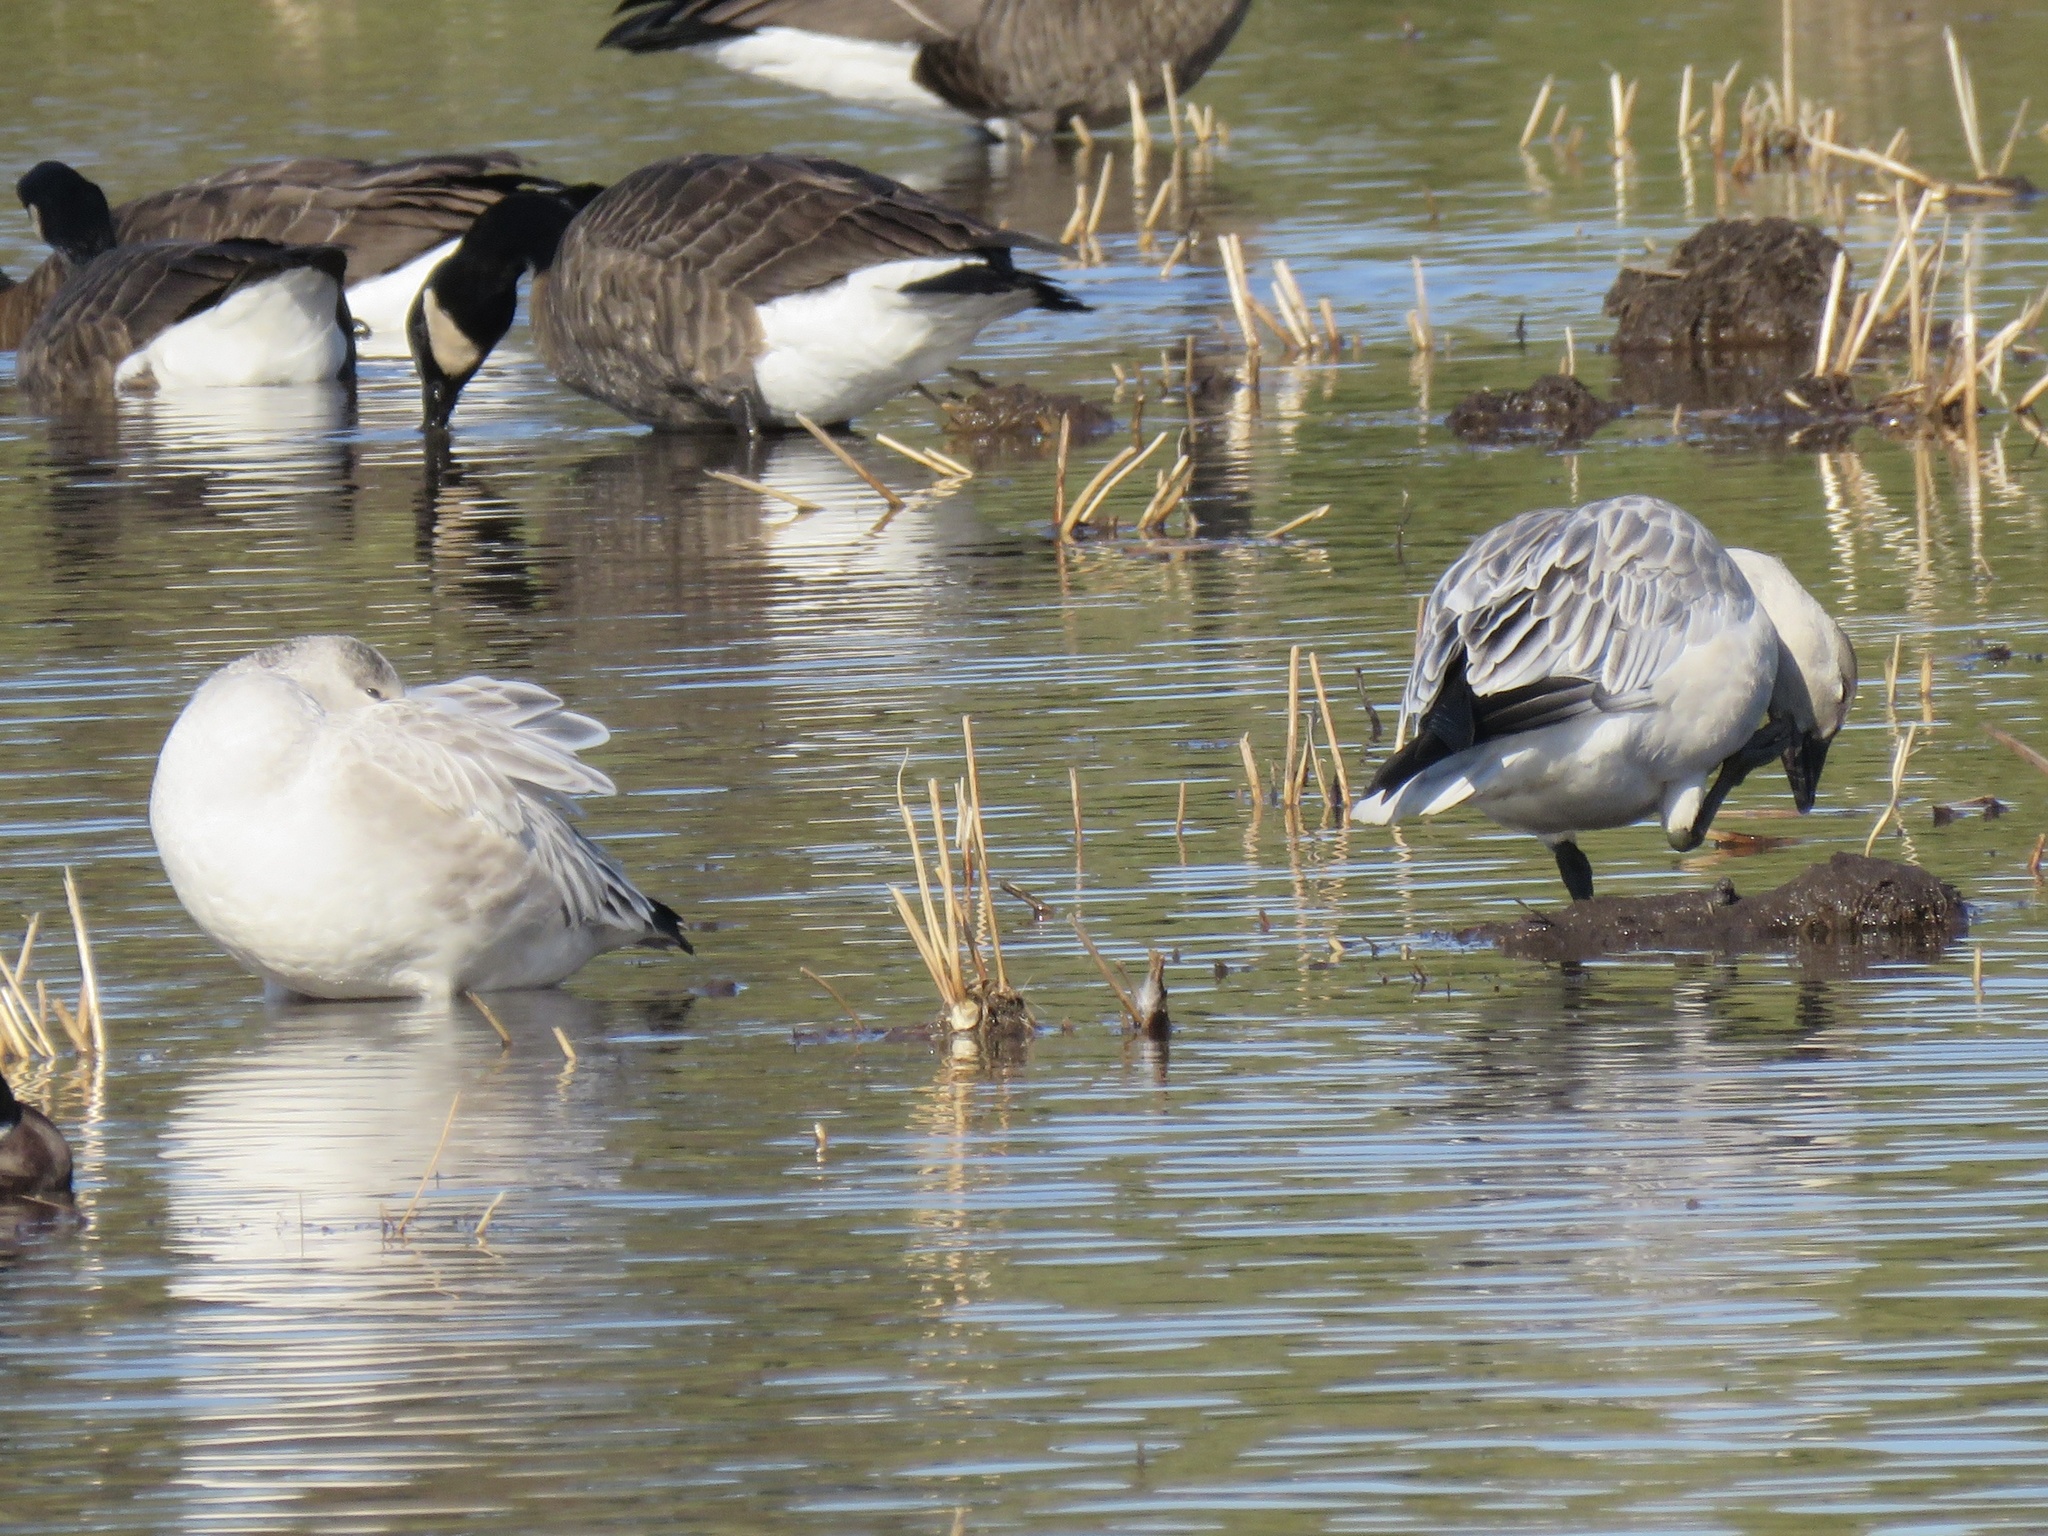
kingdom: Animalia
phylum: Chordata
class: Aves
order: Anseriformes
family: Anatidae
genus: Anser
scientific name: Anser caerulescens
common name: Snow goose
